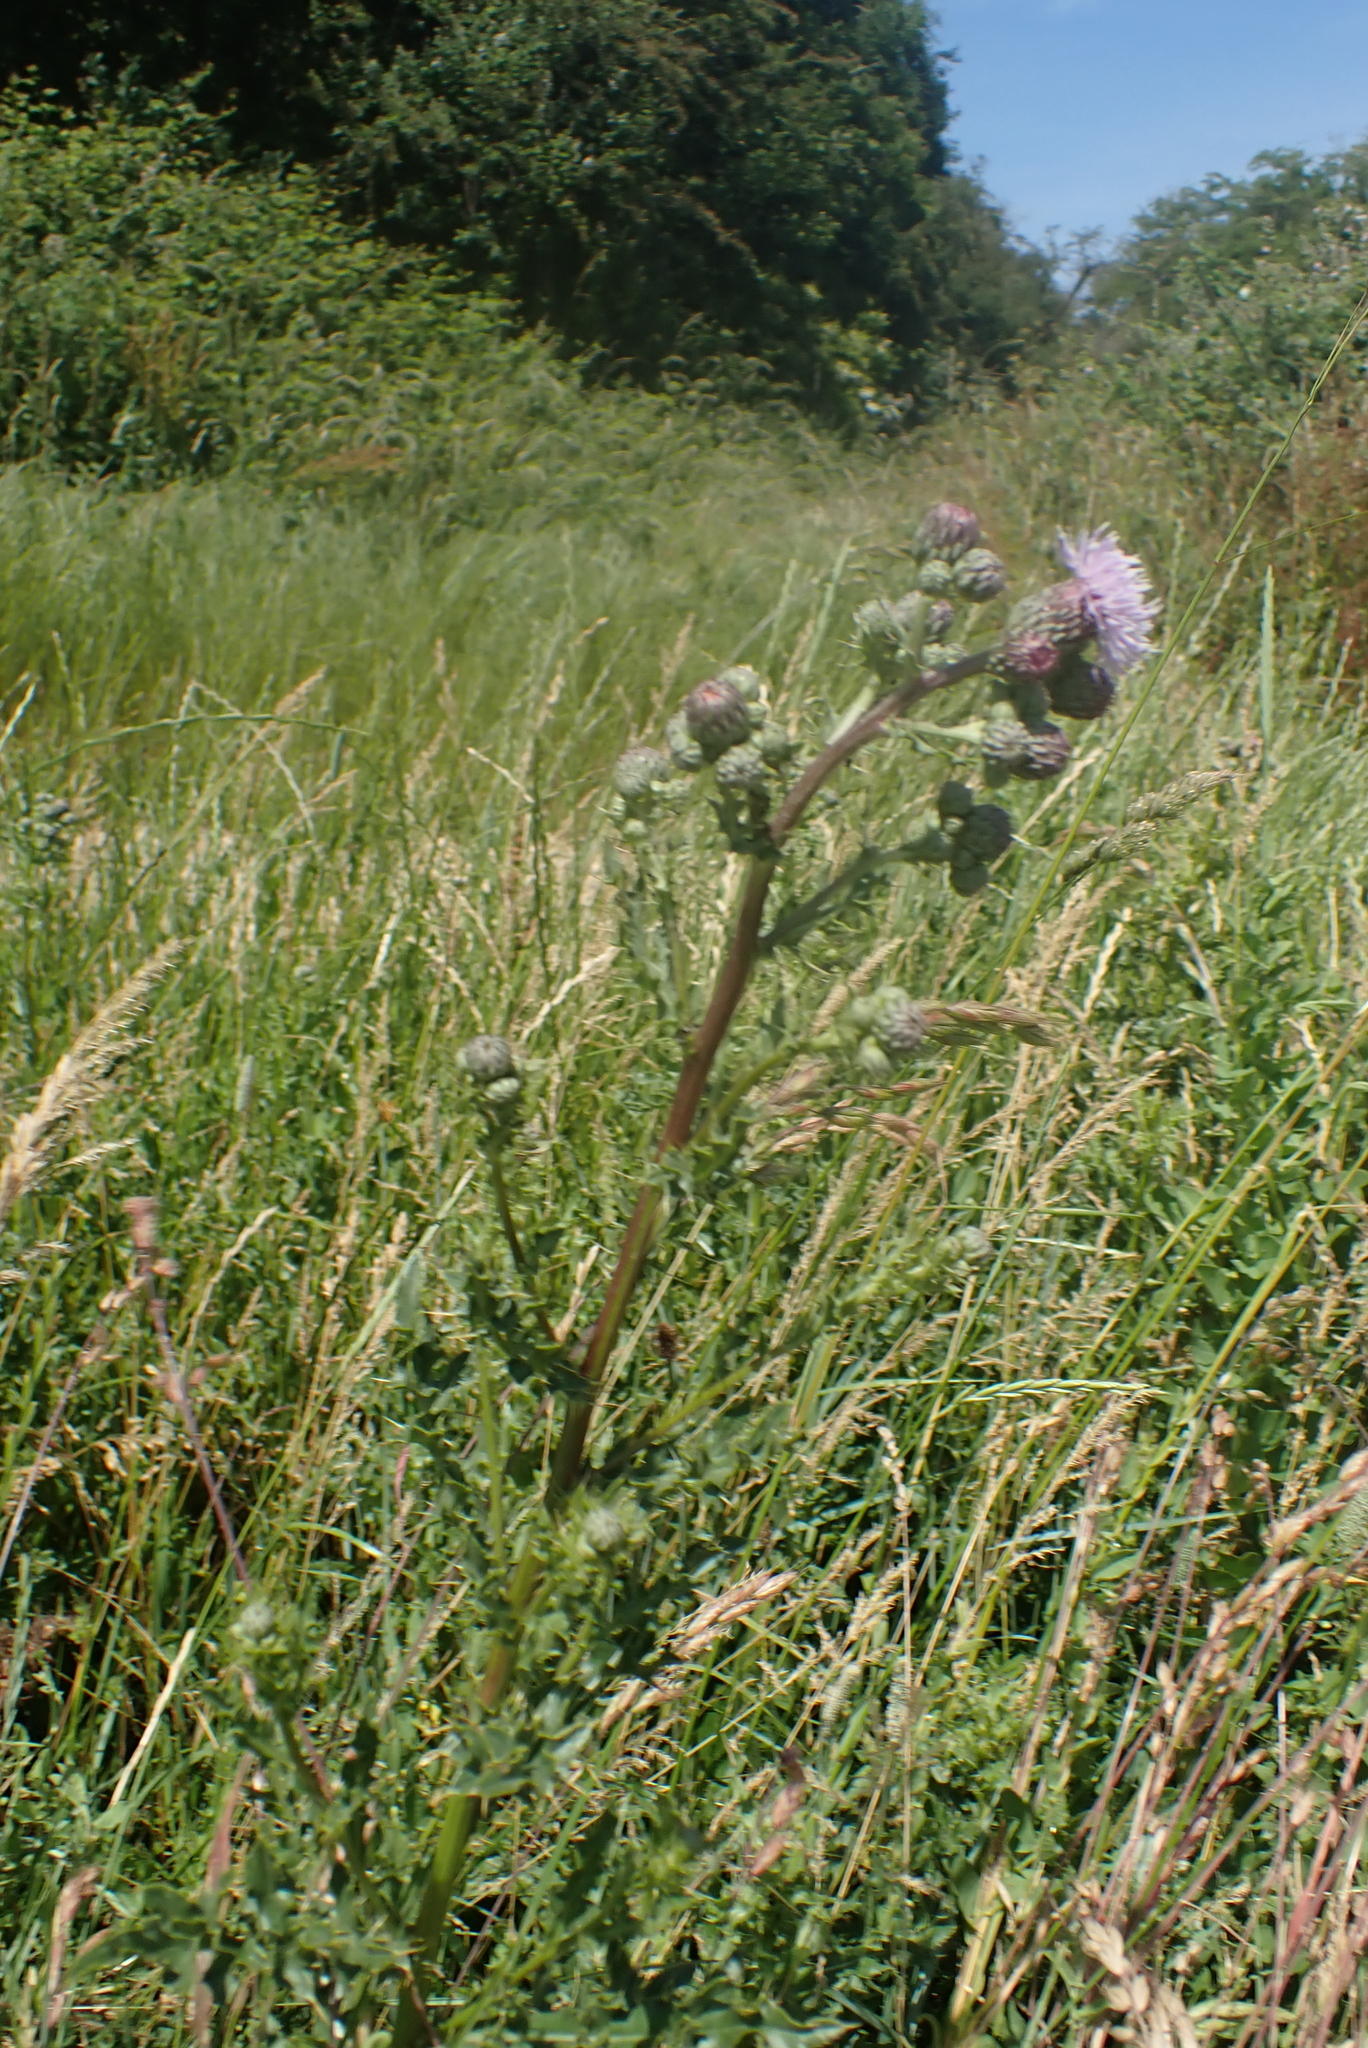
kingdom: Plantae
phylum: Tracheophyta
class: Magnoliopsida
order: Asterales
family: Asteraceae
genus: Cirsium
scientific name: Cirsium arvense
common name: Creeping thistle
